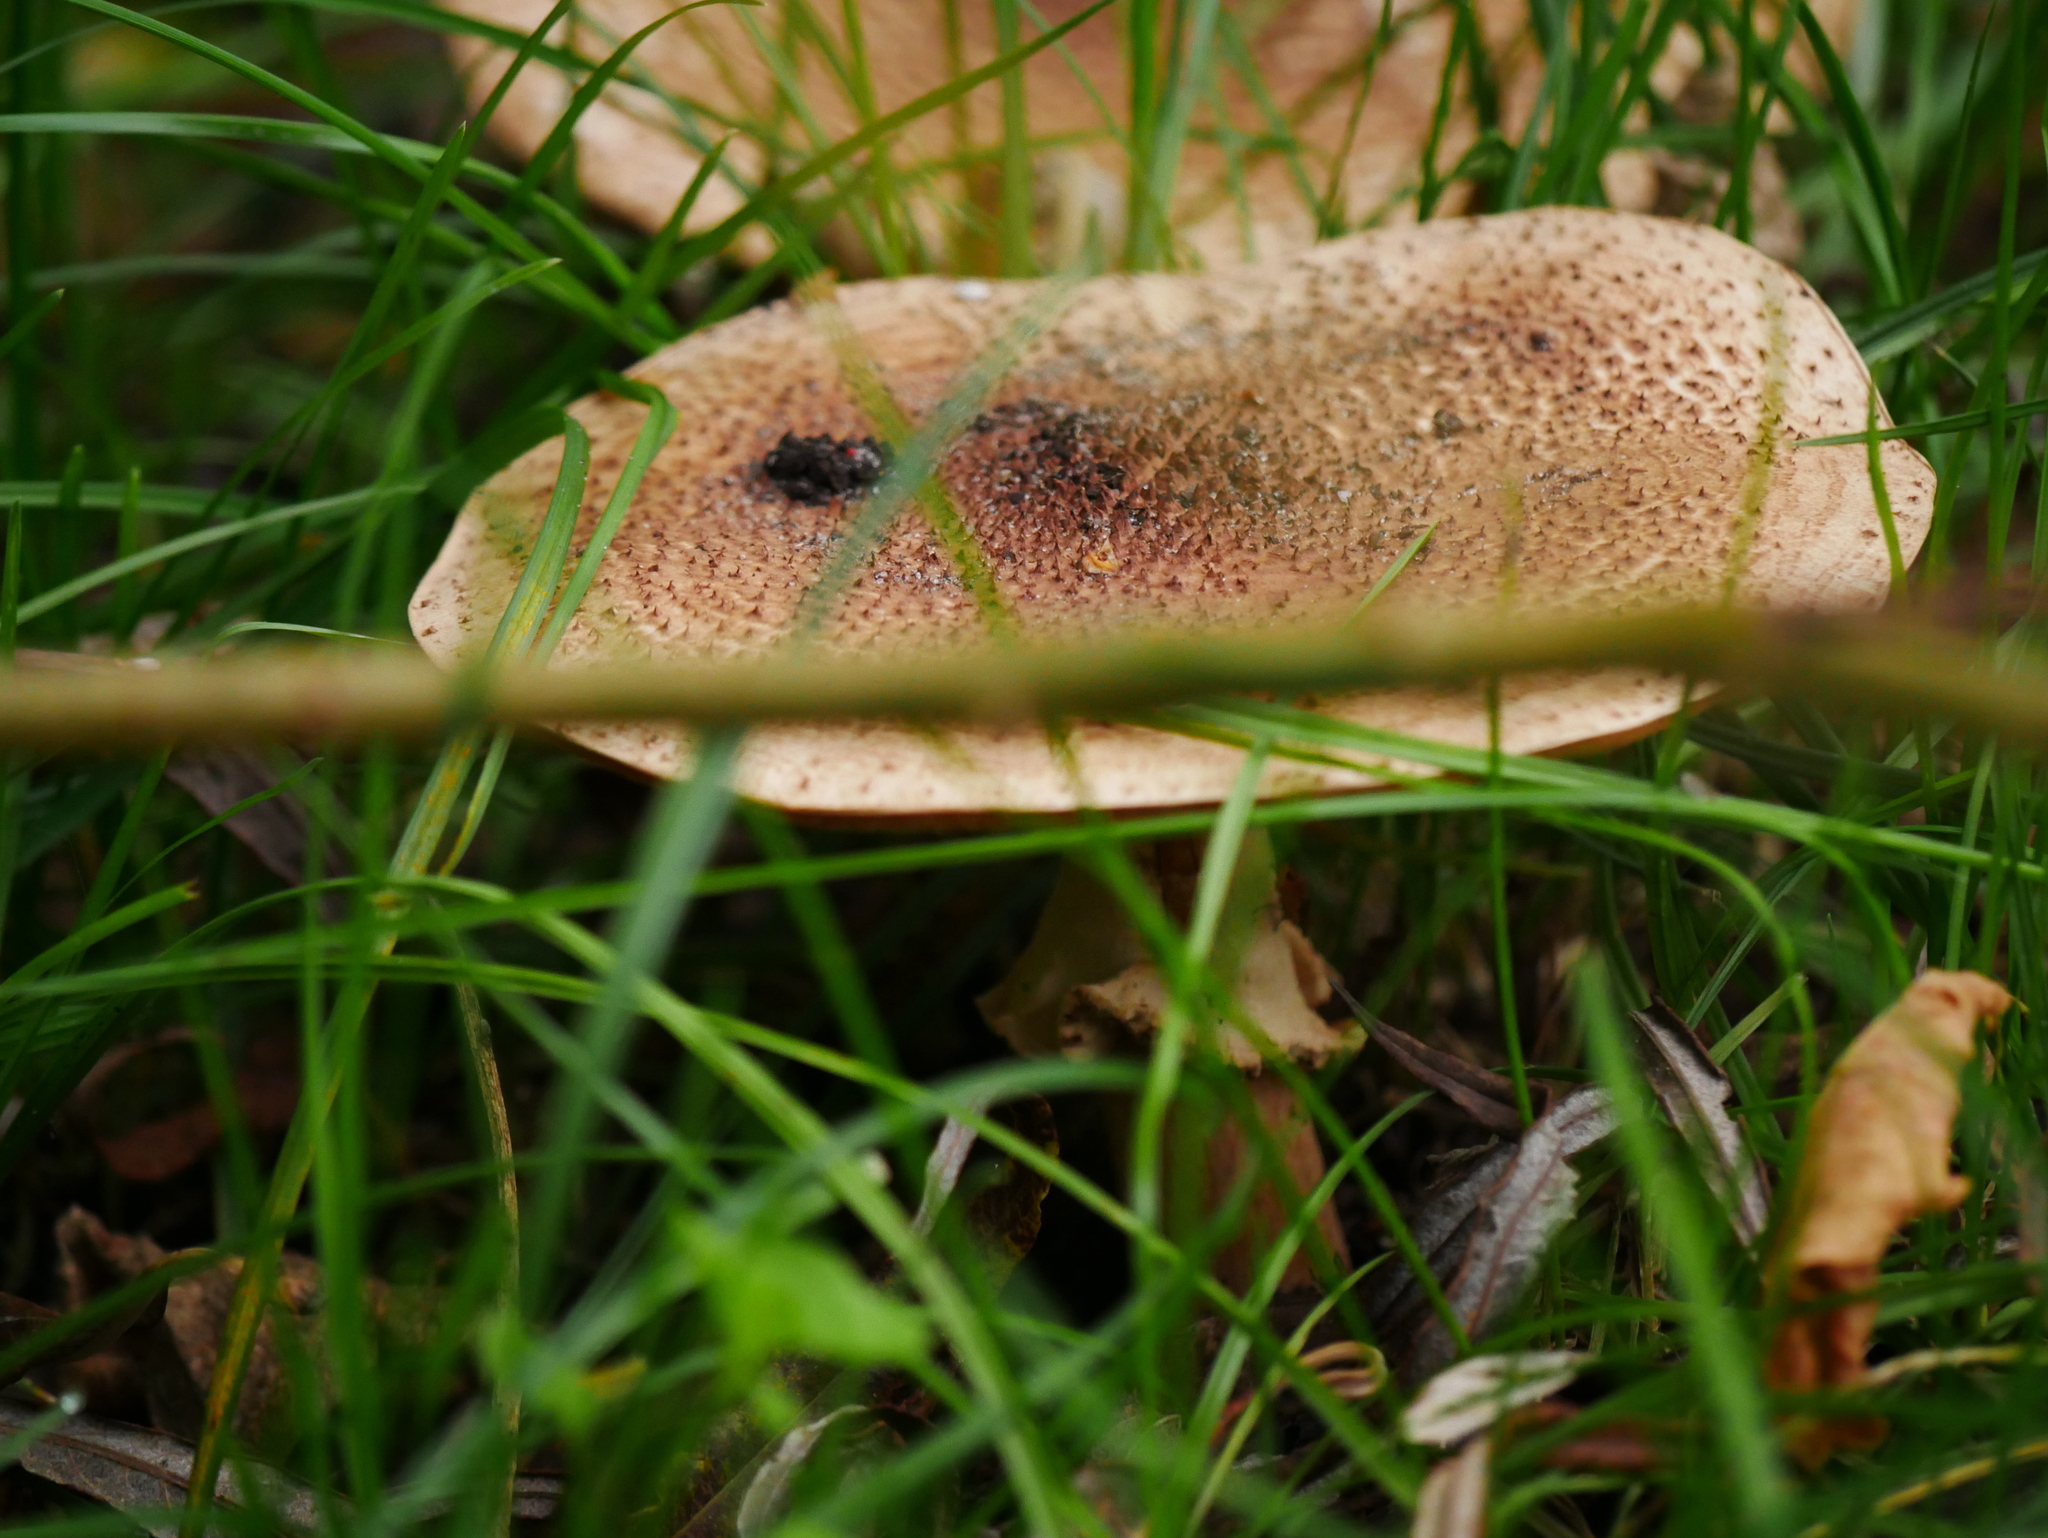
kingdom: Fungi
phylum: Basidiomycota
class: Agaricomycetes
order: Agaricales
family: Agaricaceae
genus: Echinoderma
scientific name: Echinoderma asperum
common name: Freckled dapperling
